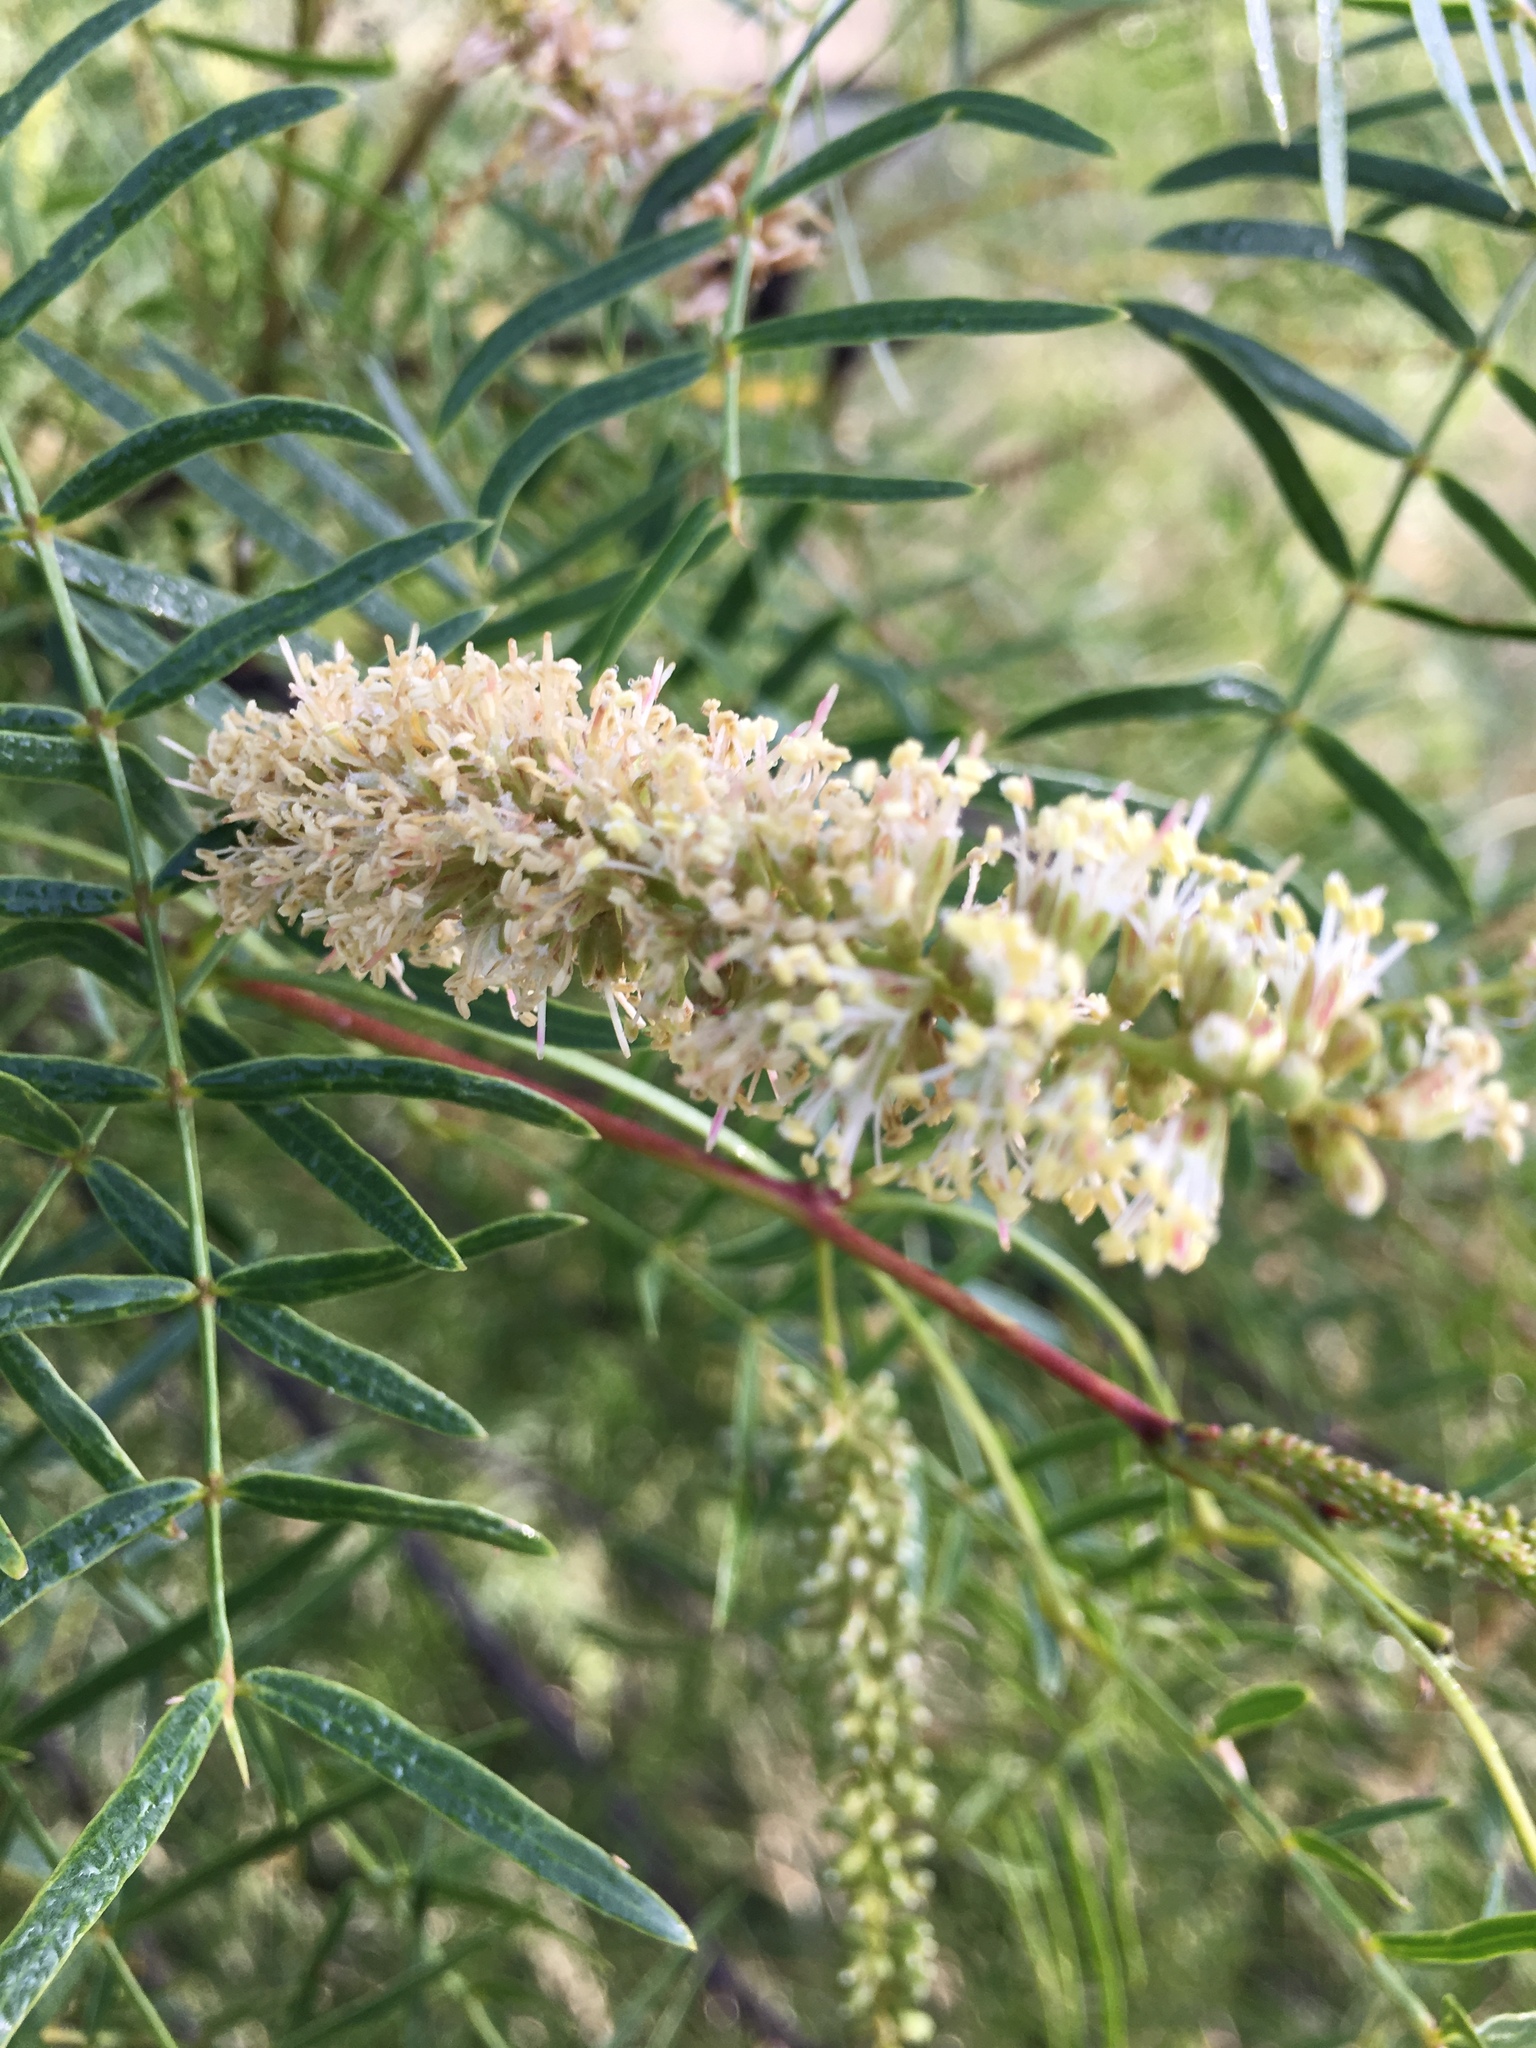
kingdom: Plantae
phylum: Tracheophyta
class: Magnoliopsida
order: Fabales
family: Fabaceae
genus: Prosopis
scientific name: Prosopis glandulosa
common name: Honey mesquite
